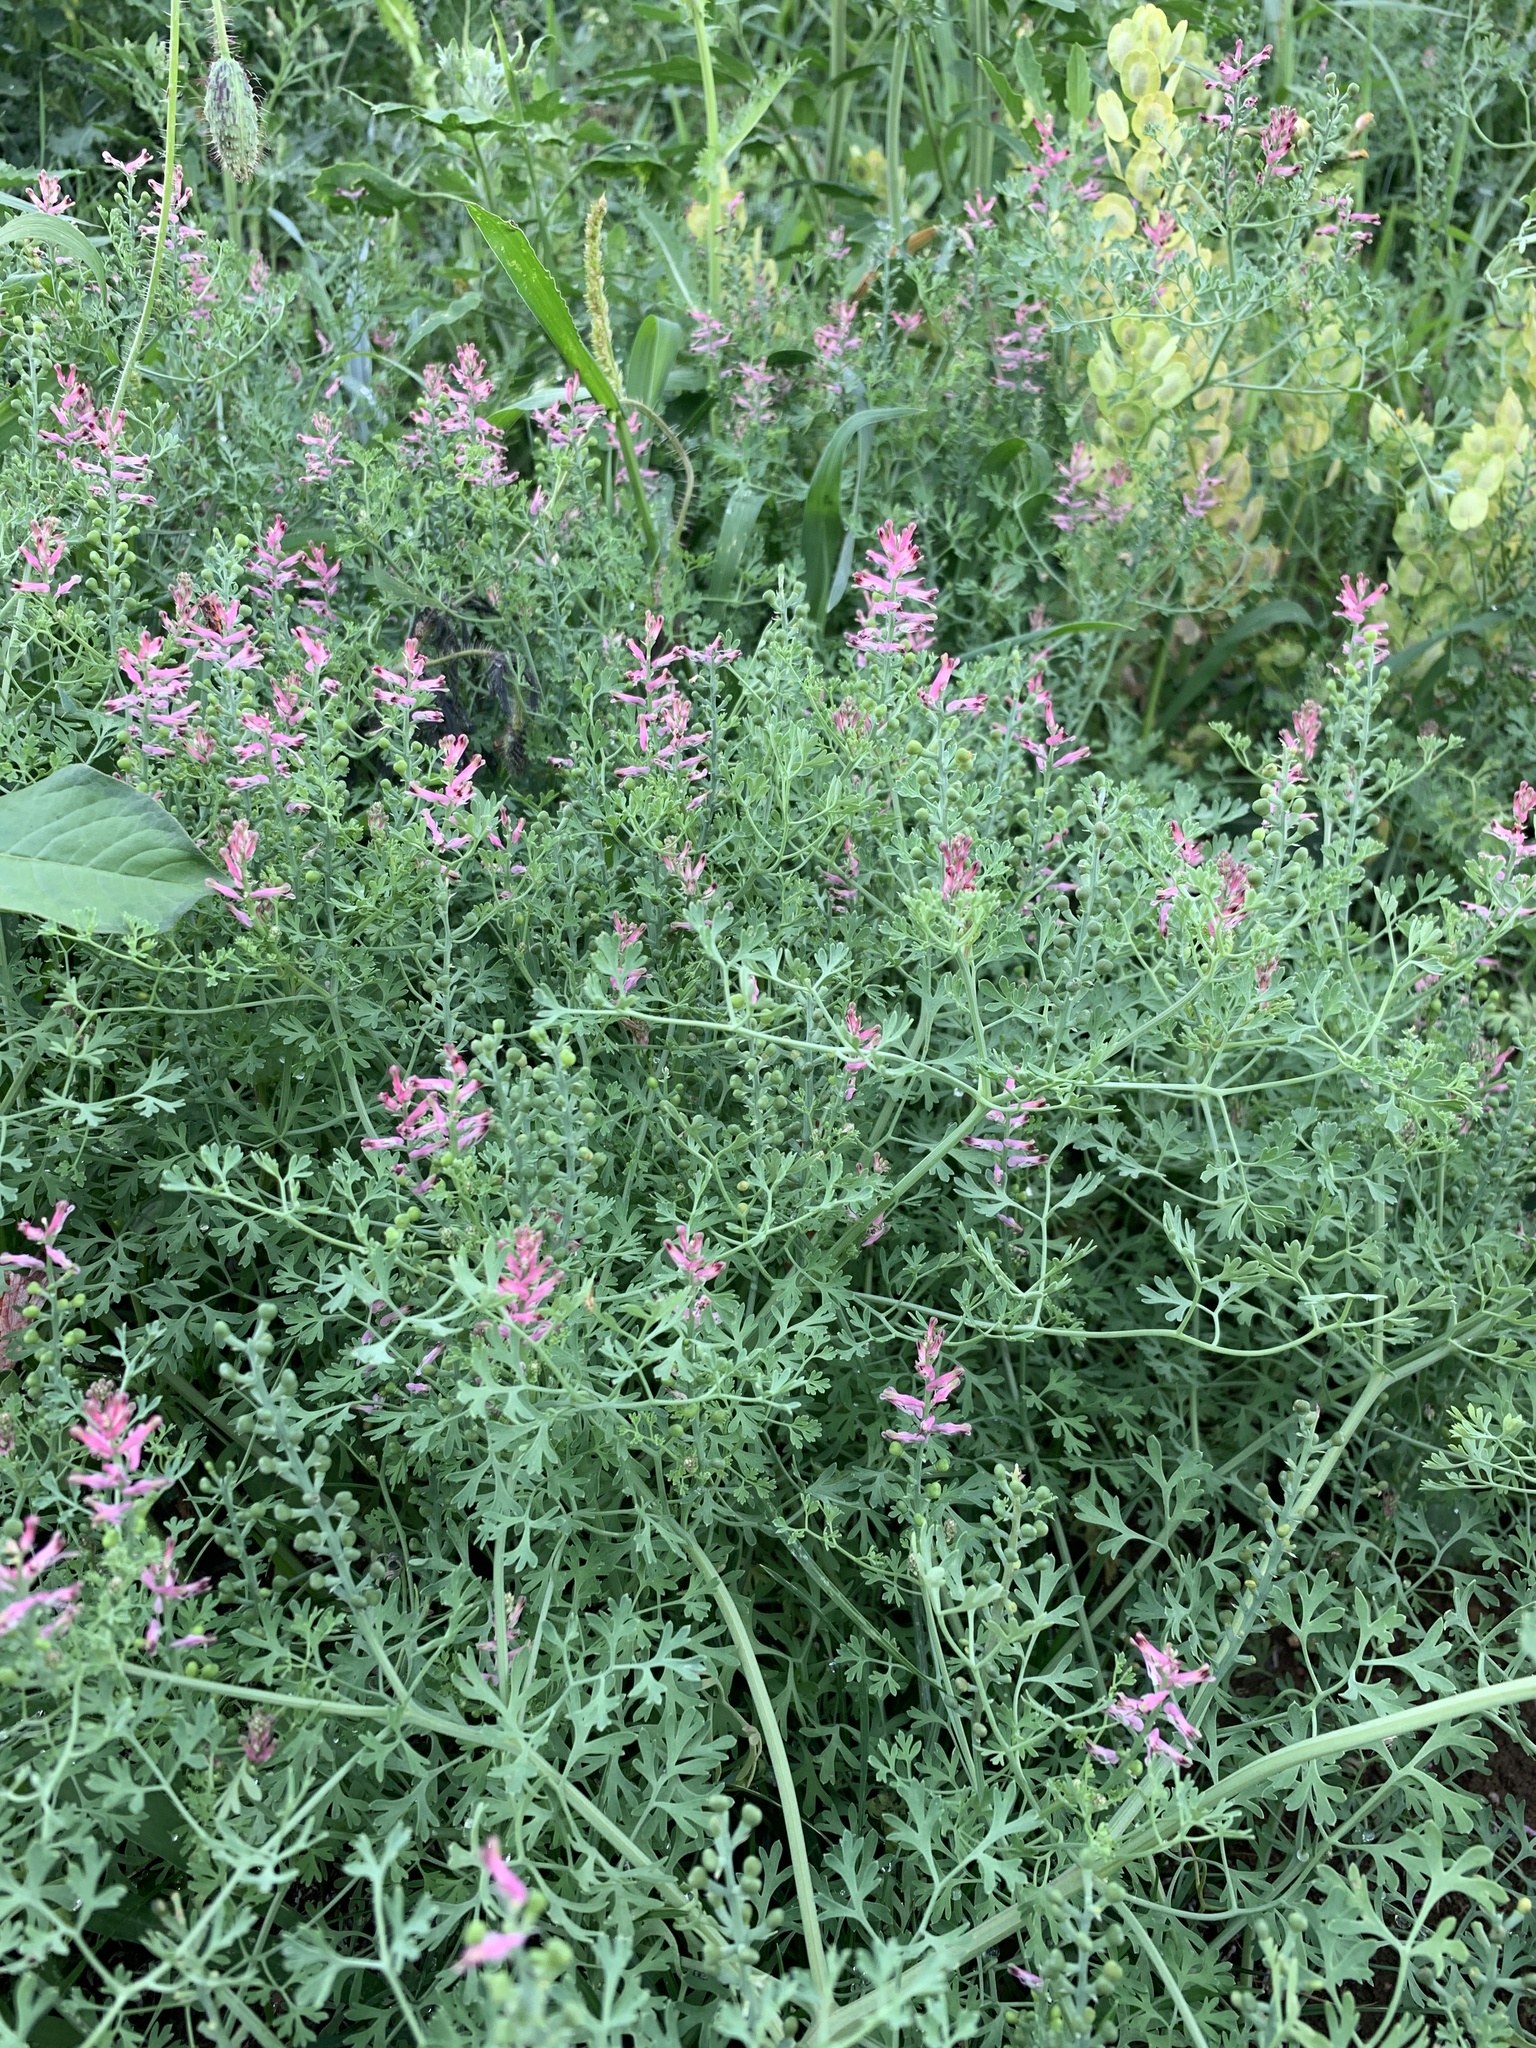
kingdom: Plantae
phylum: Tracheophyta
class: Magnoliopsida
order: Ranunculales
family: Papaveraceae
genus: Fumaria
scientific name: Fumaria officinalis
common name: Common fumitory
